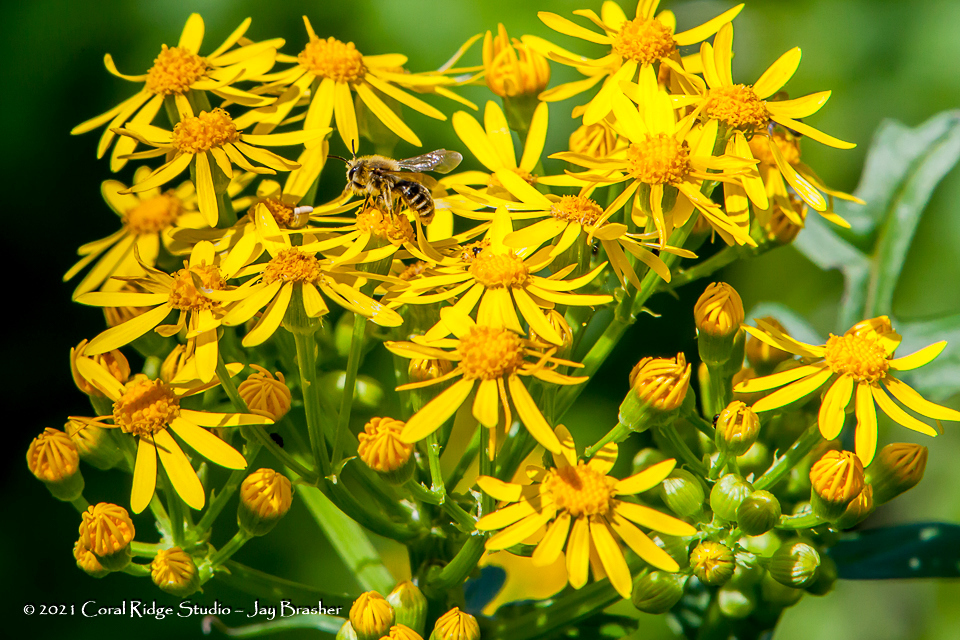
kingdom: Plantae
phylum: Tracheophyta
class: Magnoliopsida
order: Asterales
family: Asteraceae
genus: Packera
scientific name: Packera glabella
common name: Butterweed
